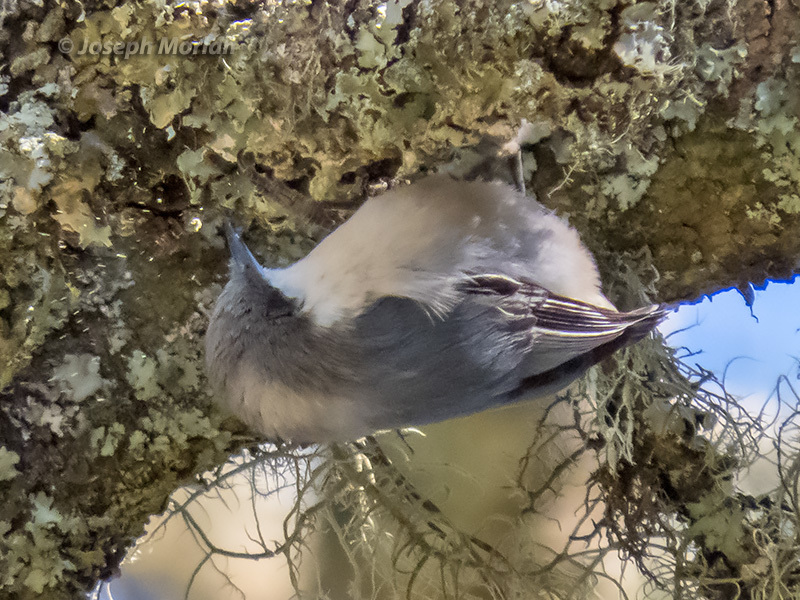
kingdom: Animalia
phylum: Chordata
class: Aves
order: Passeriformes
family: Sittidae
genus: Sitta
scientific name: Sitta pygmaea
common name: Pygmy nuthatch
